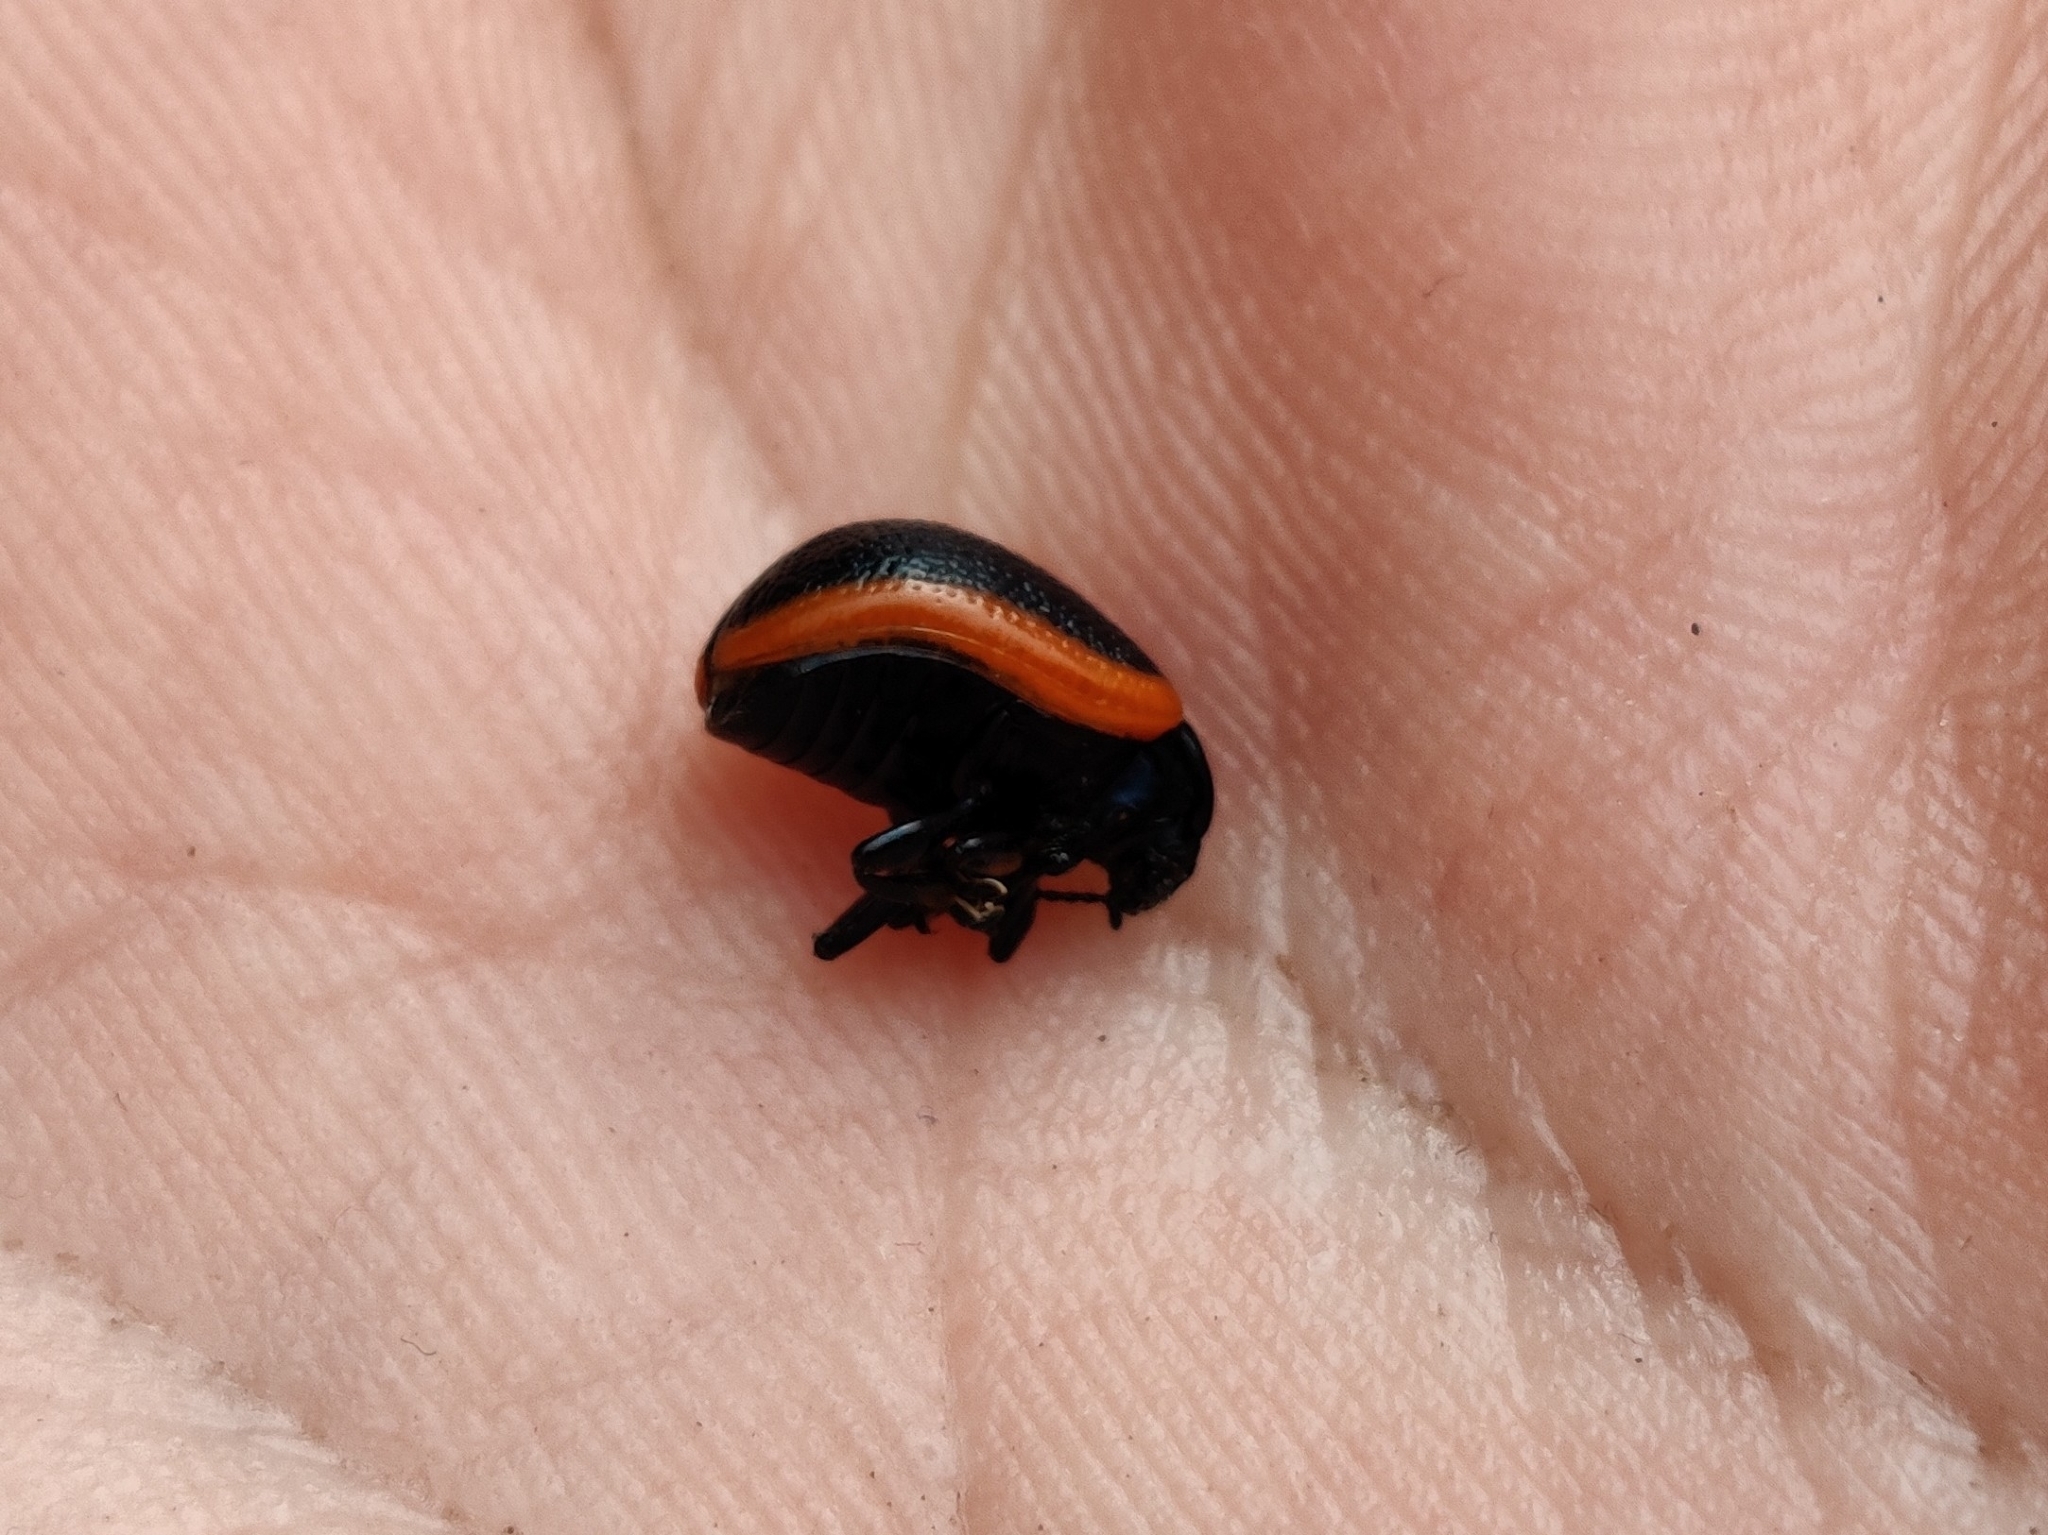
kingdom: Animalia
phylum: Arthropoda
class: Insecta
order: Coleoptera
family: Chrysomelidae
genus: Chrysolina
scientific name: Chrysolina sanguinolenta
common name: Toadflax leaf beetle
